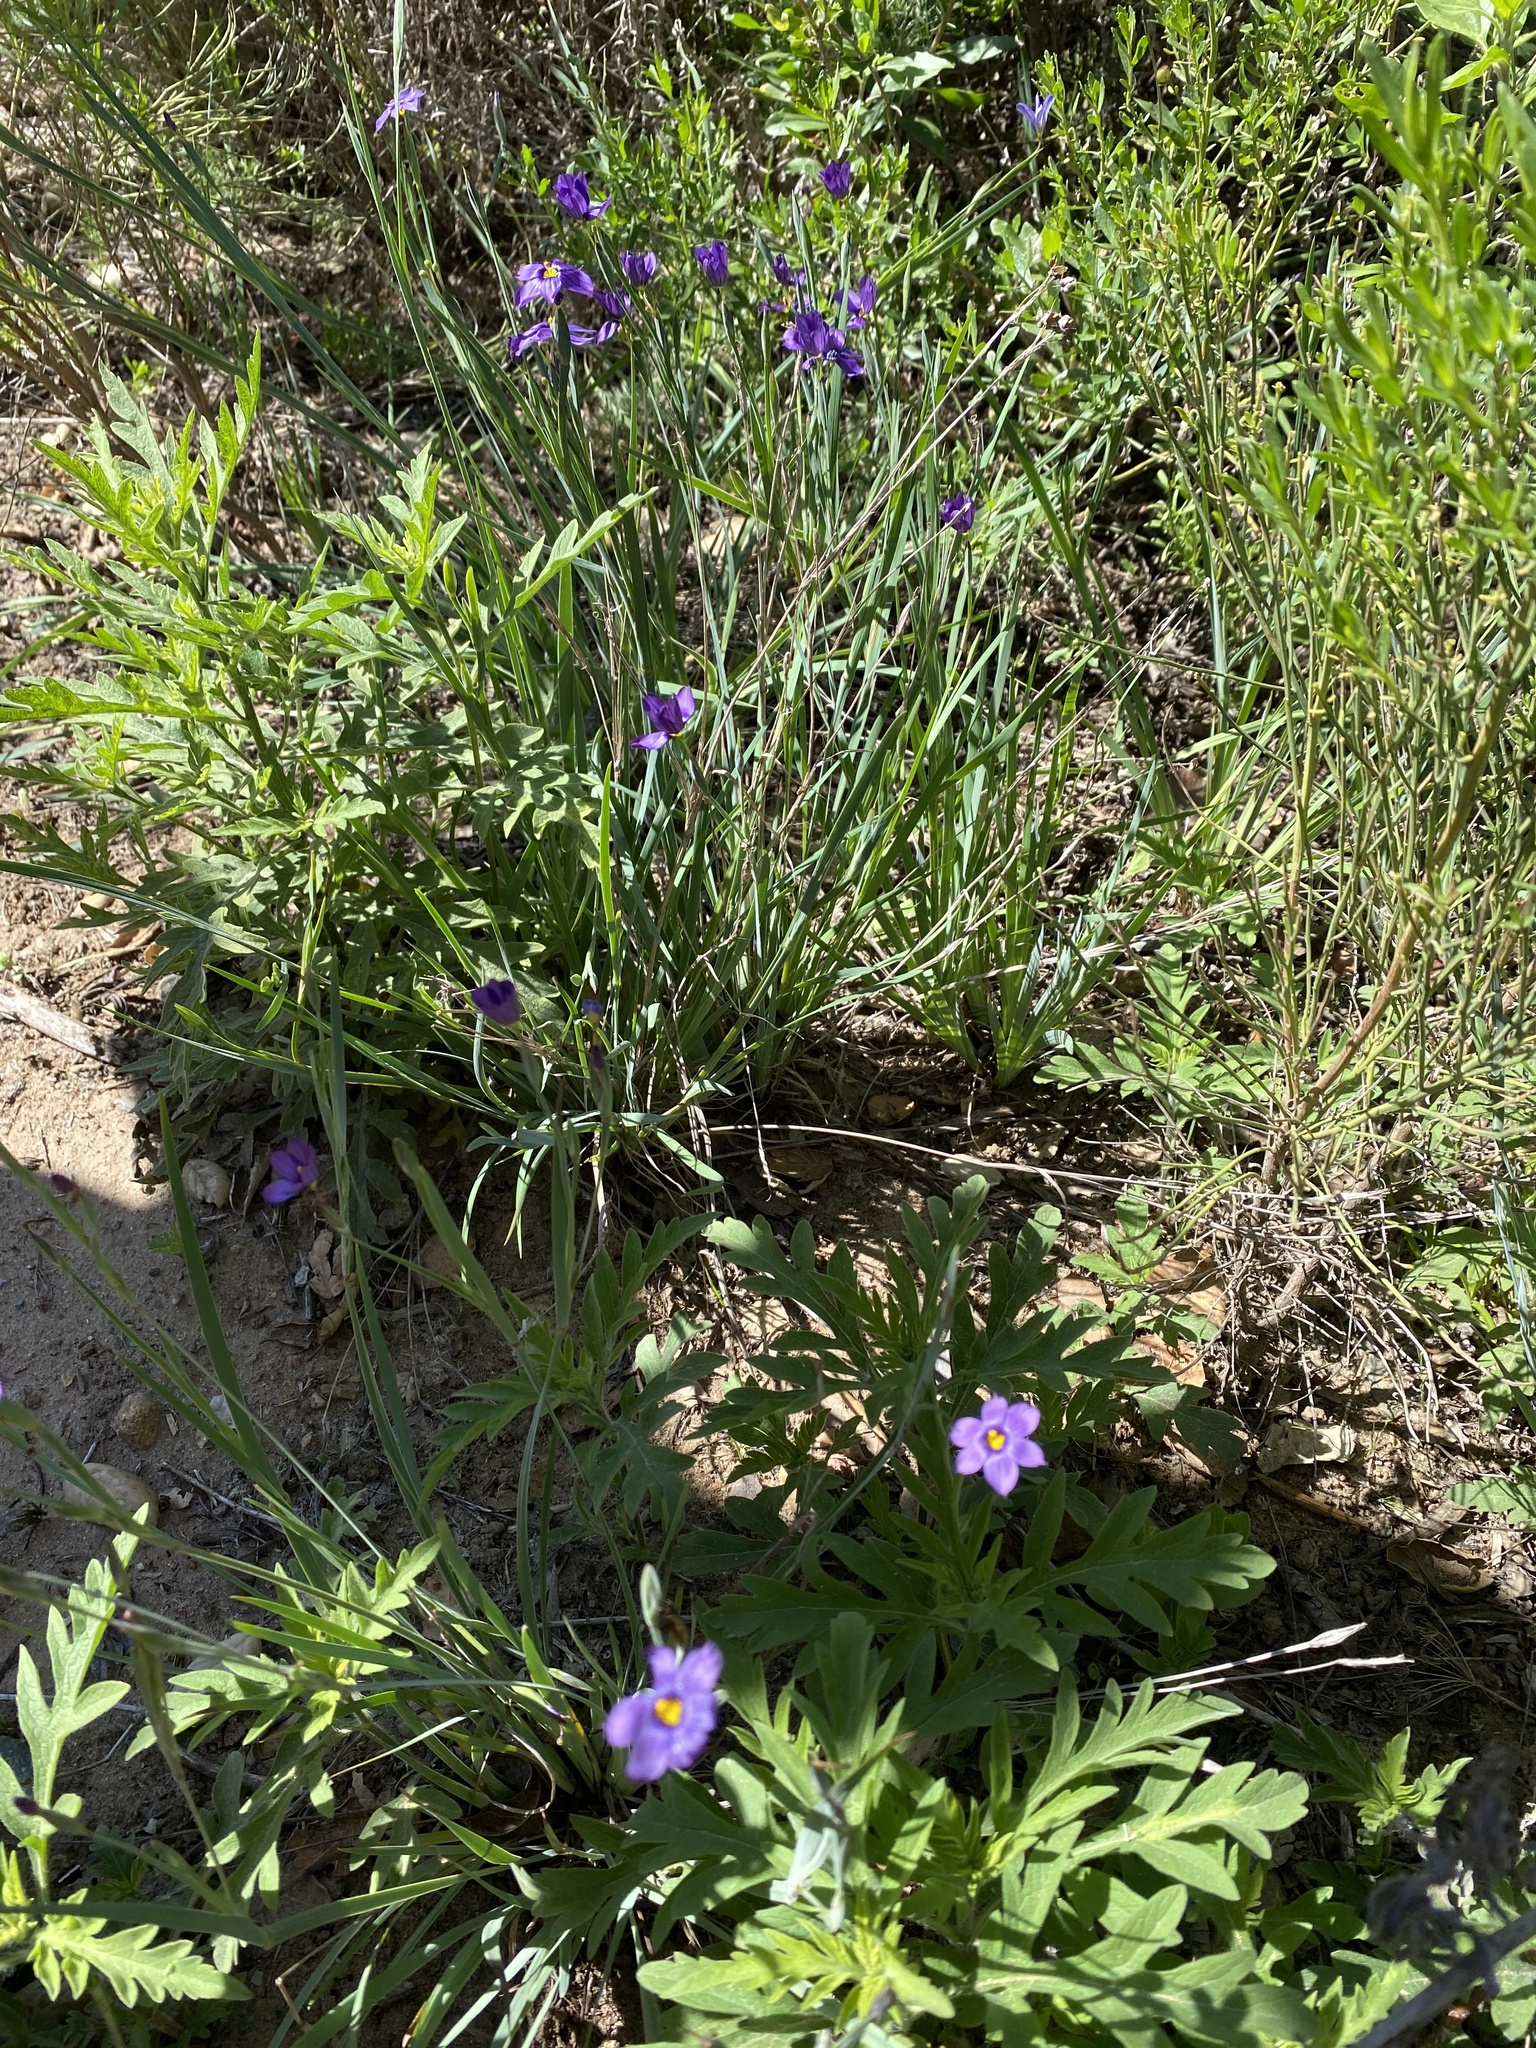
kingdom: Plantae
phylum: Tracheophyta
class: Liliopsida
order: Asparagales
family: Iridaceae
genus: Sisyrinchium
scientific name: Sisyrinchium bellum
